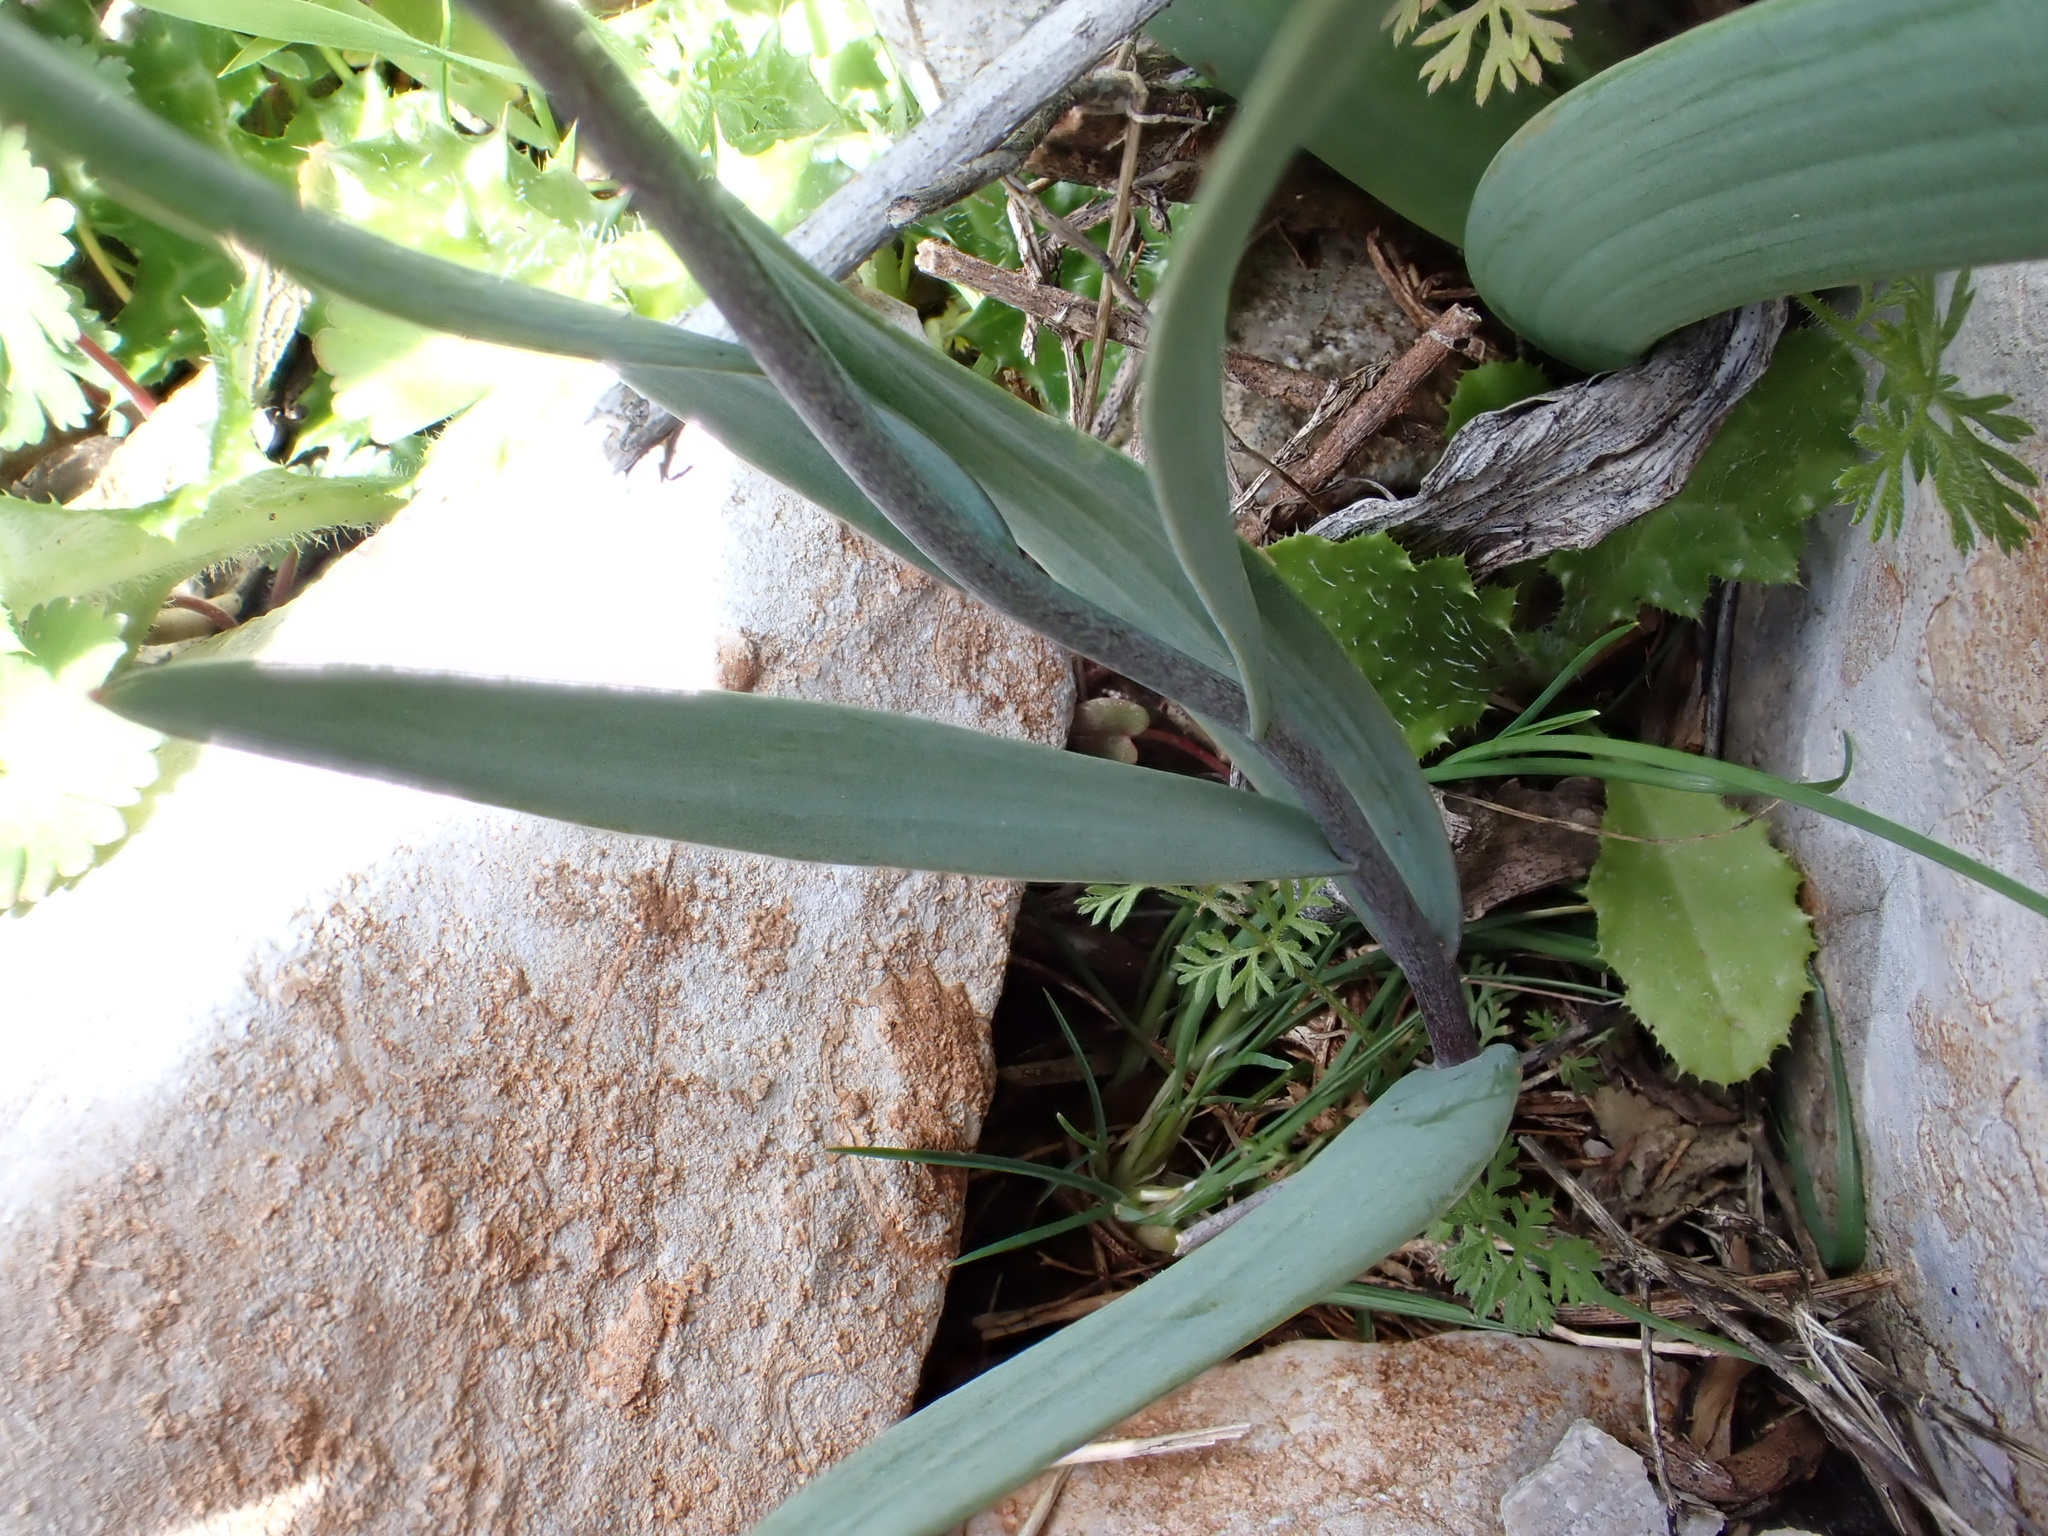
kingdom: Plantae
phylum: Tracheophyta
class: Liliopsida
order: Liliales
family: Liliaceae
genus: Fritillaria
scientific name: Fritillaria lusitanica
